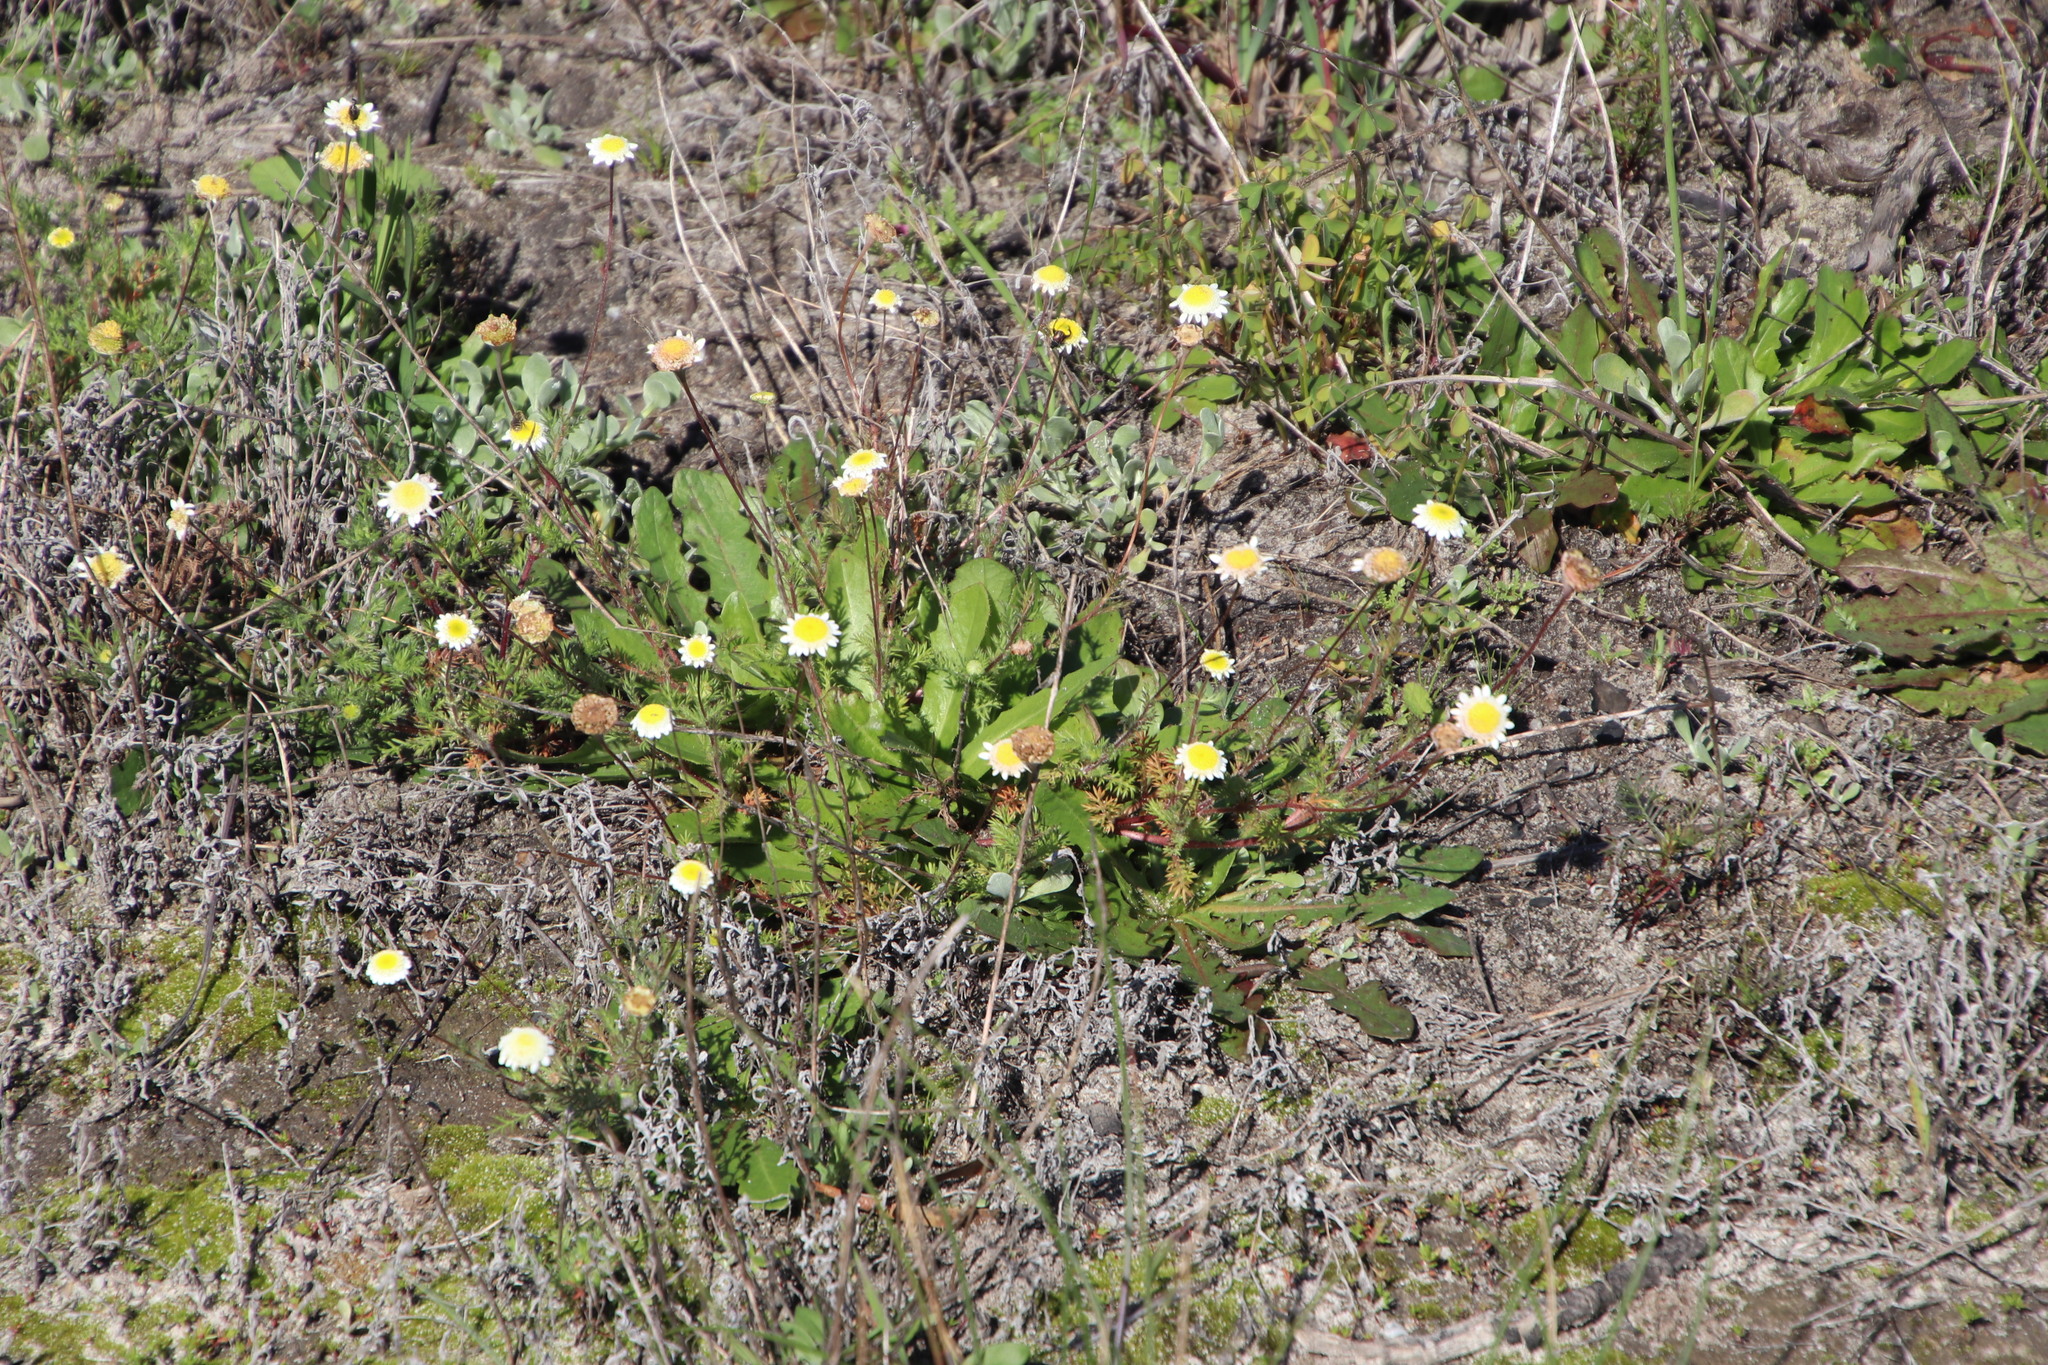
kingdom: Plantae
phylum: Tracheophyta
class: Magnoliopsida
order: Asterales
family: Asteraceae
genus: Cotula
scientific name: Cotula turbinata
